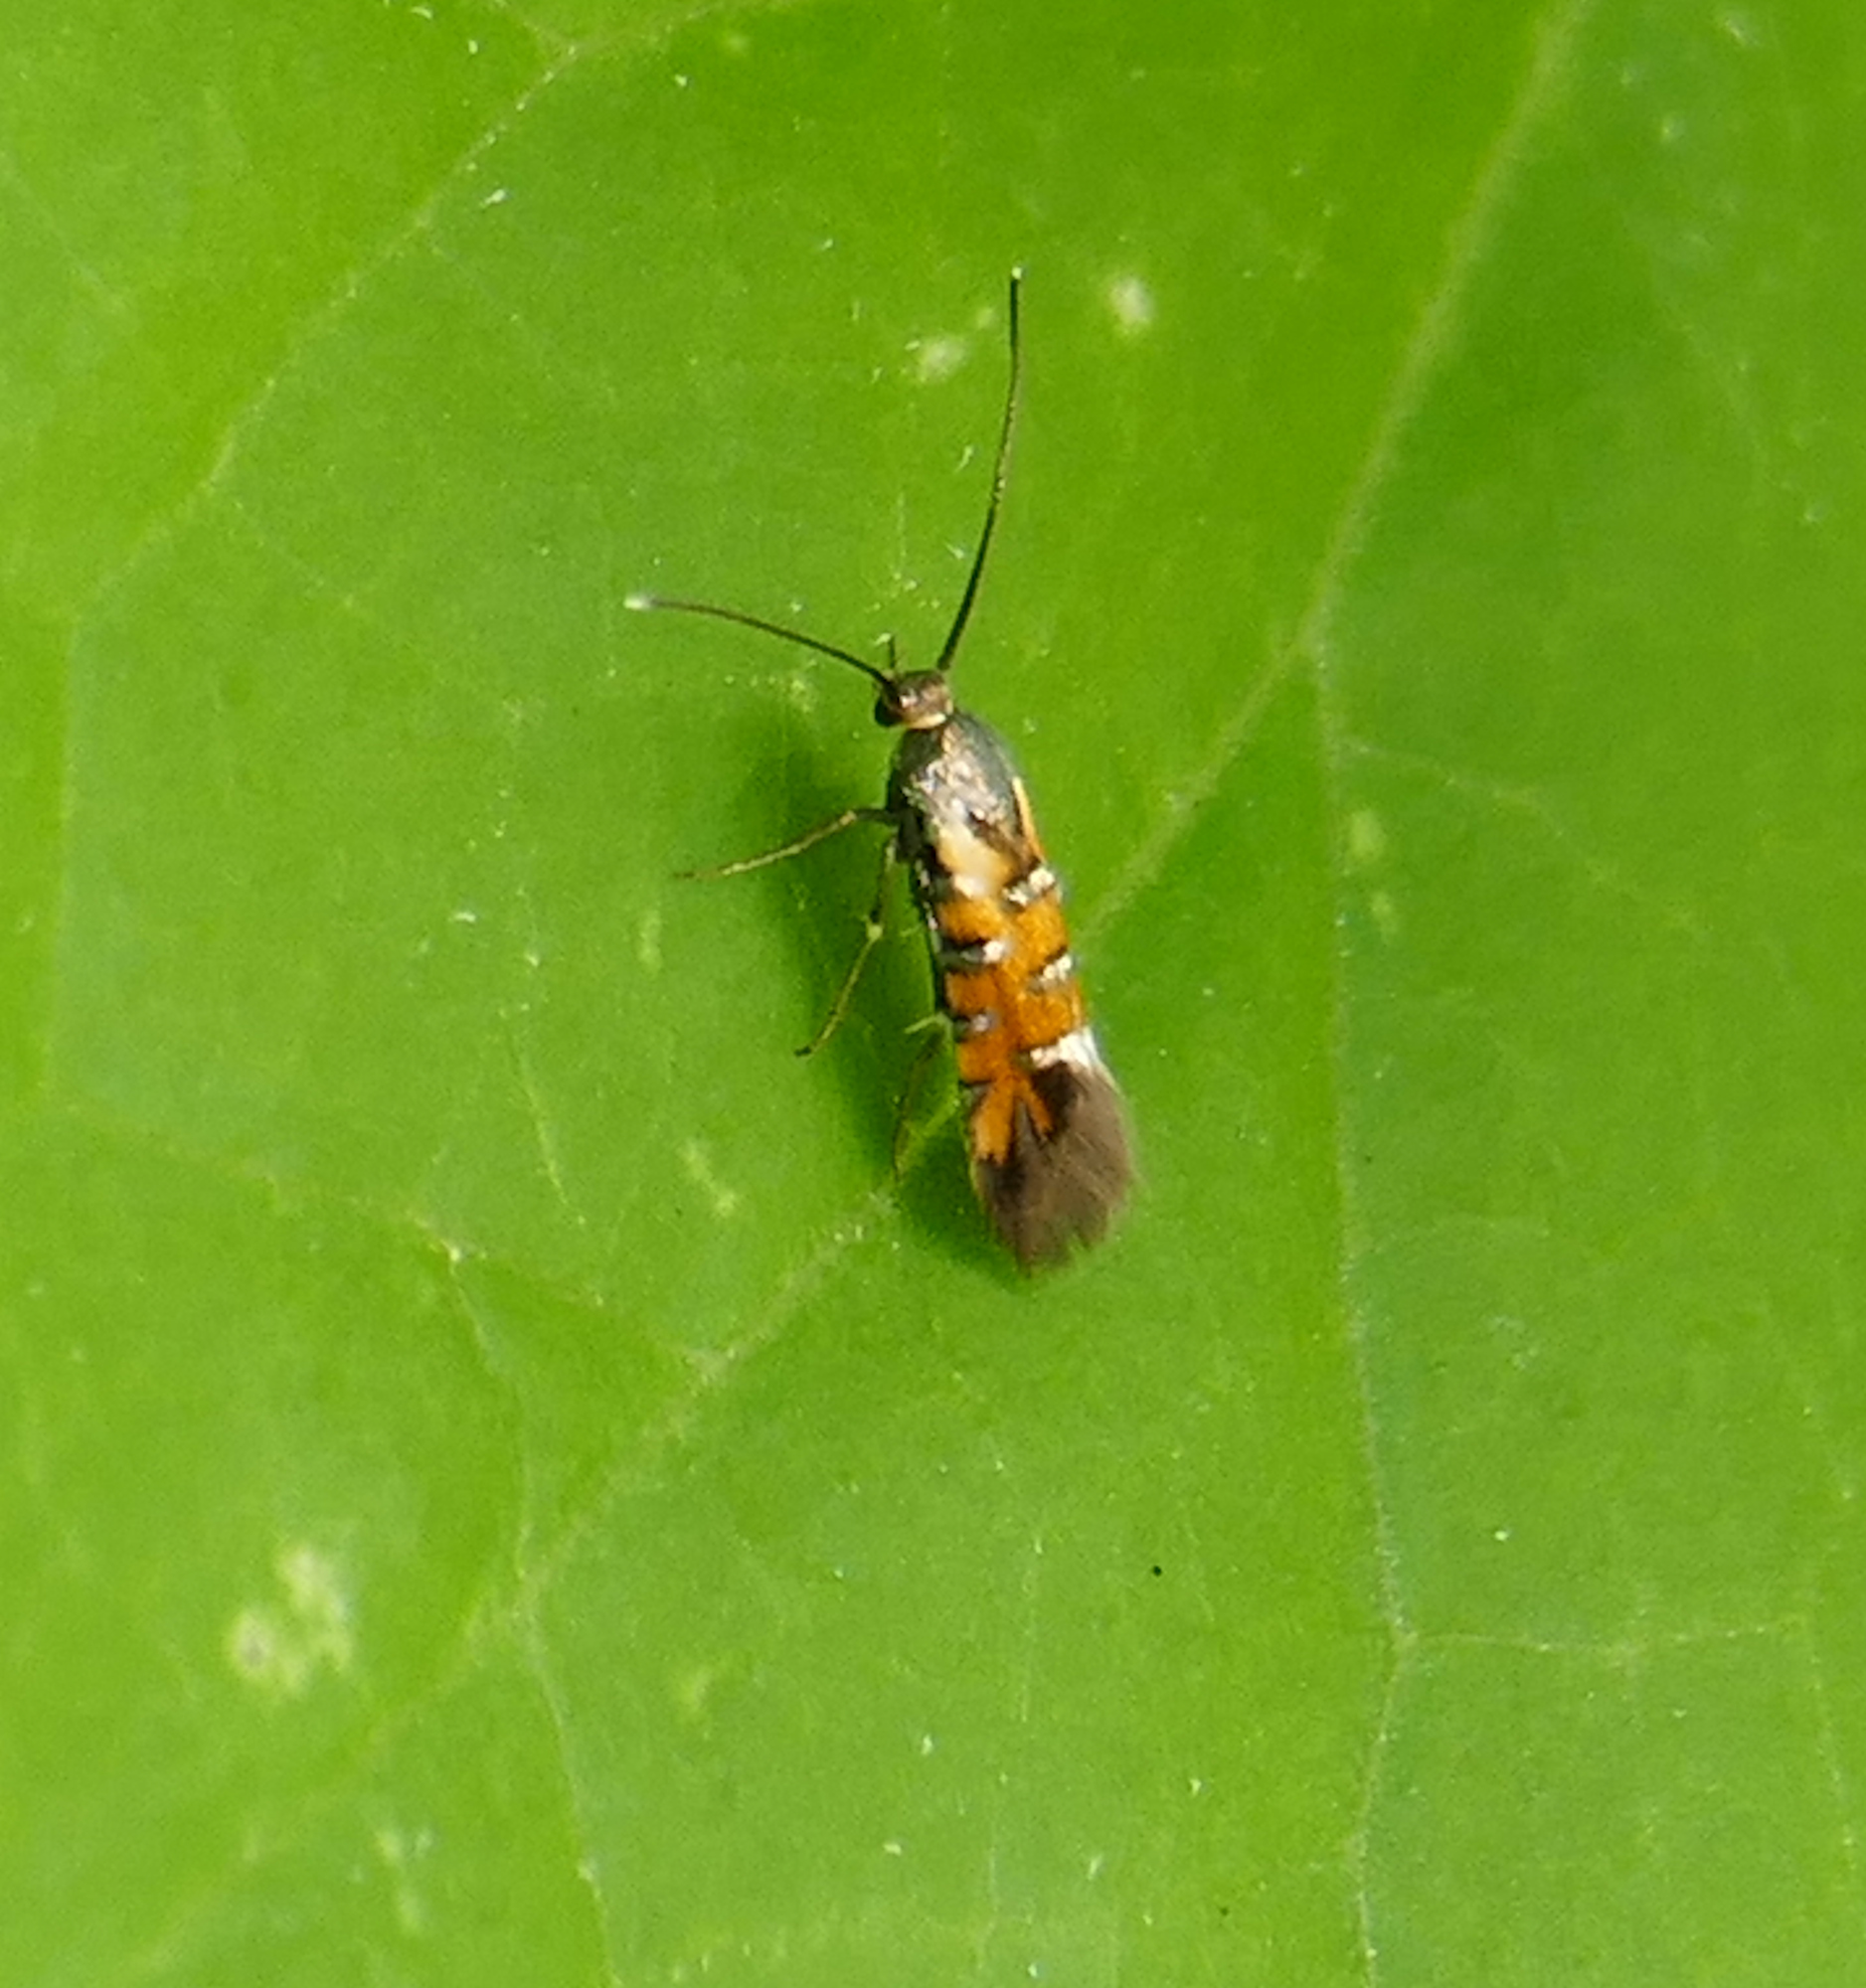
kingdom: Animalia
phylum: Arthropoda
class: Insecta
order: Lepidoptera
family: Heliodinidae
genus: Neoheliodines
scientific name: Neoheliodines
